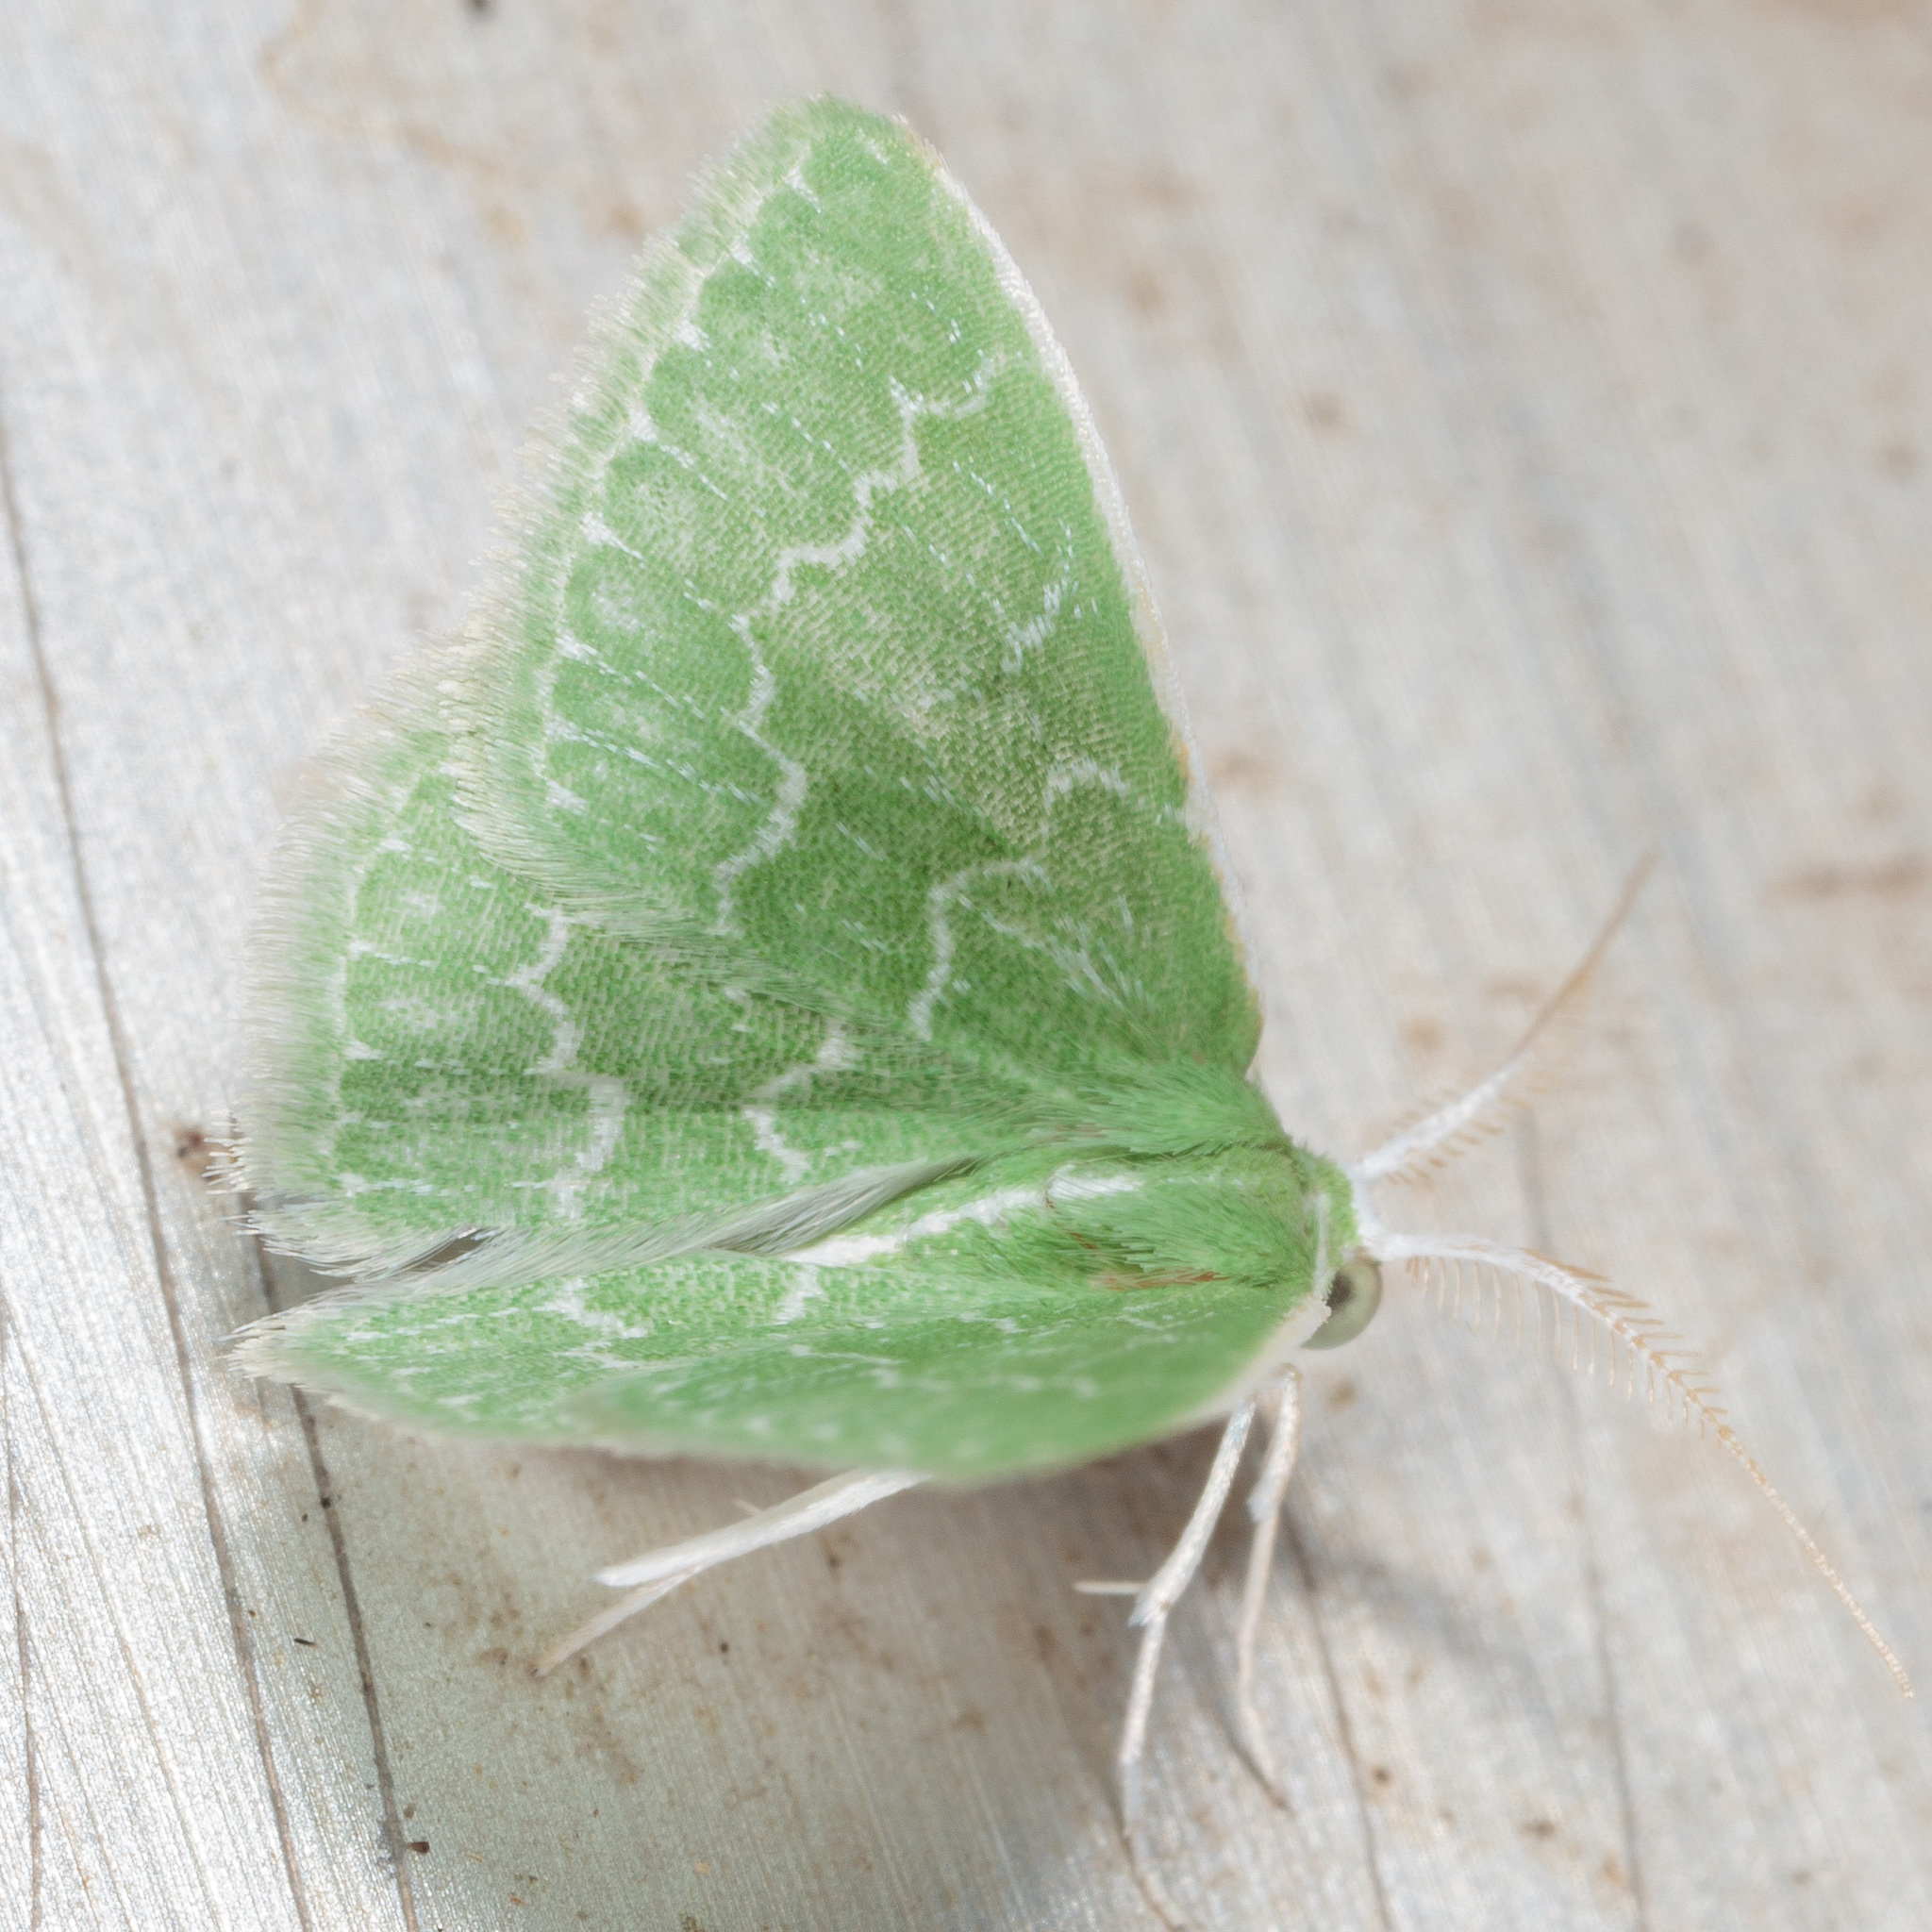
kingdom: Animalia
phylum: Arthropoda
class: Insecta
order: Lepidoptera
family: Geometridae
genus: Synchlora
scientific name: Synchlora frondaria
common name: Southern emerald
